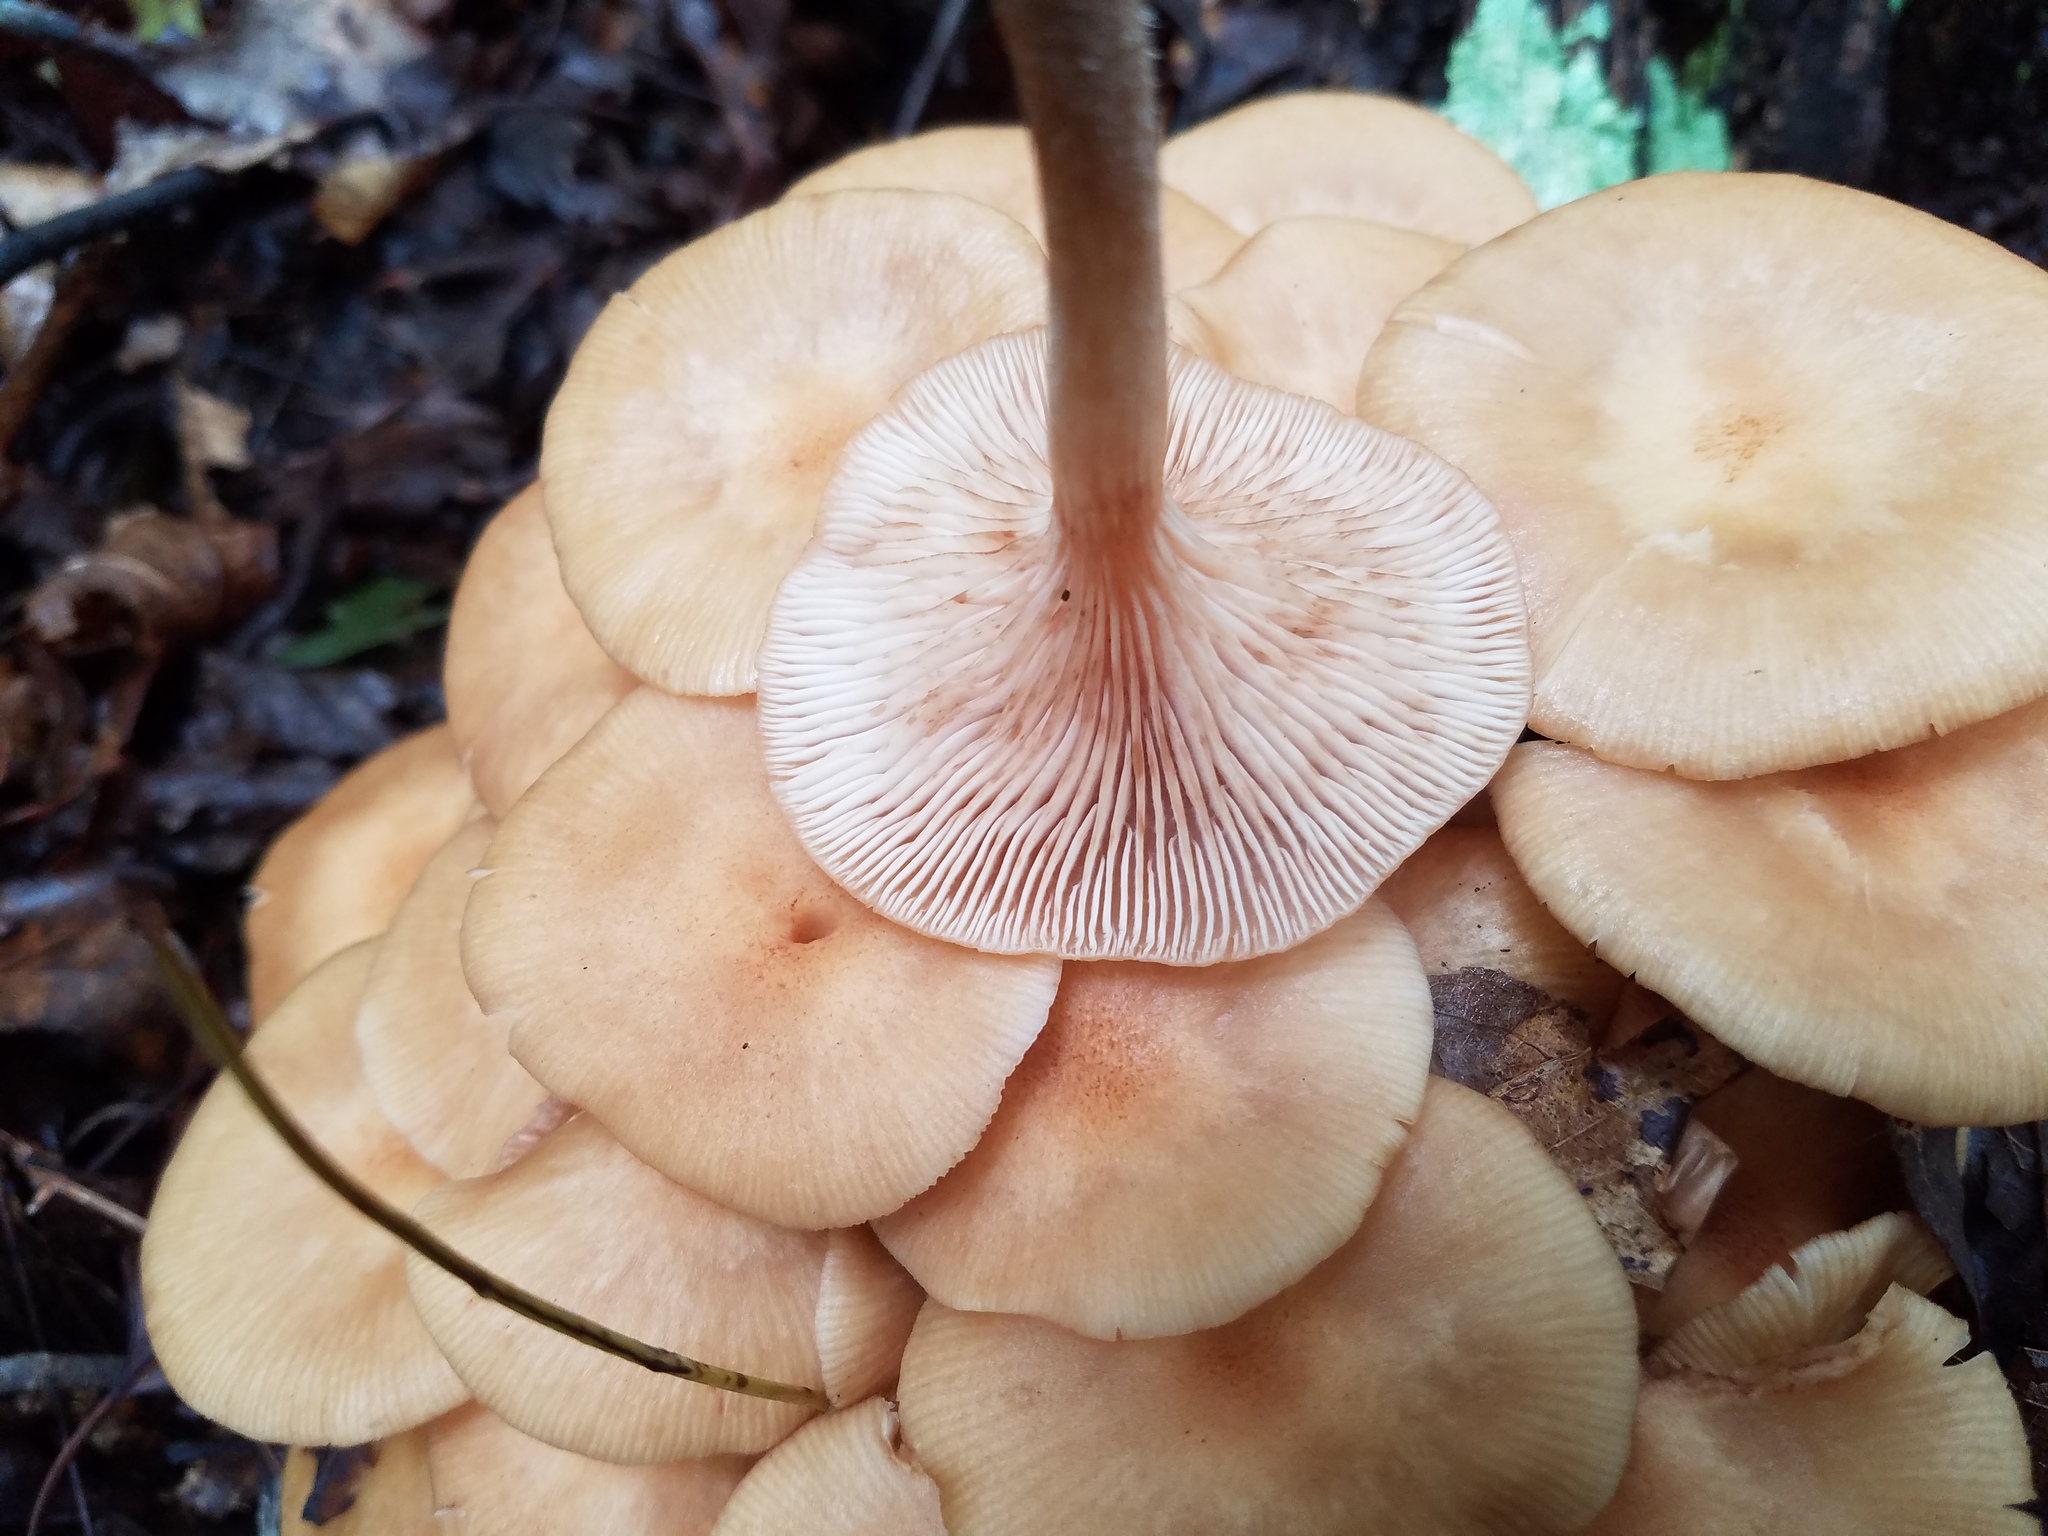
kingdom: Fungi
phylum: Basidiomycota
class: Agaricomycetes
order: Agaricales
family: Physalacriaceae
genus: Desarmillaria
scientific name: Desarmillaria caespitosa
